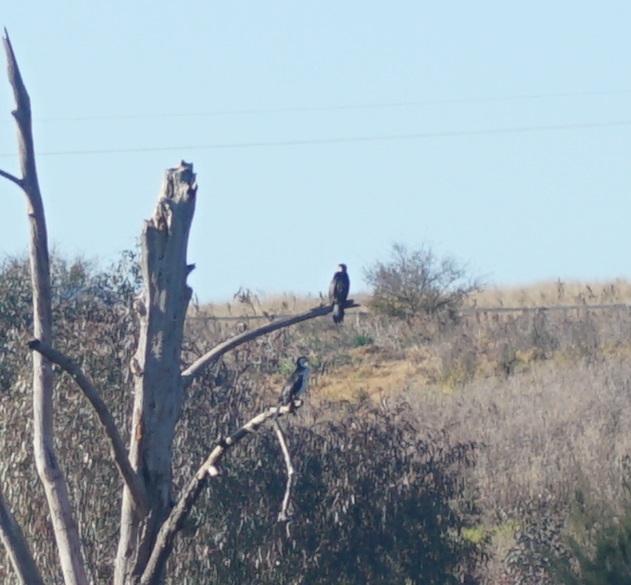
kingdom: Animalia
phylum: Chordata
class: Aves
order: Suliformes
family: Phalacrocoracidae
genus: Microcarbo
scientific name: Microcarbo melanoleucos
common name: Little pied cormorant
